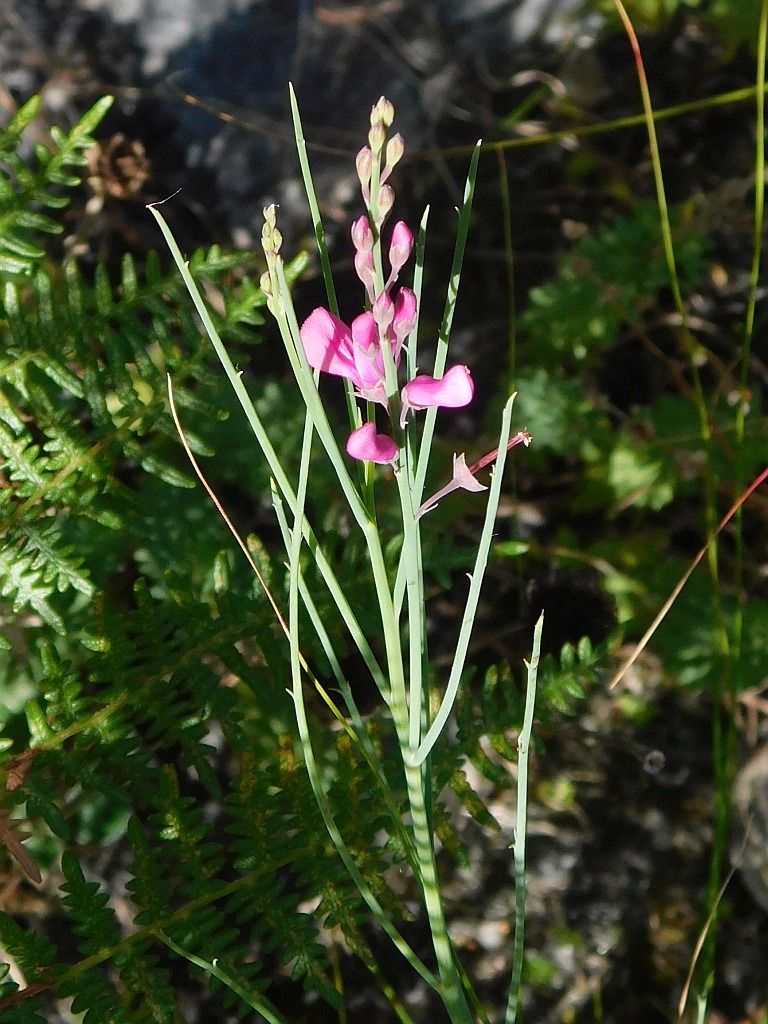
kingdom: Plantae
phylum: Tracheophyta
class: Magnoliopsida
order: Fabales
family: Fabaceae
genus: Indigofera
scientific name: Indigofera filifolia
